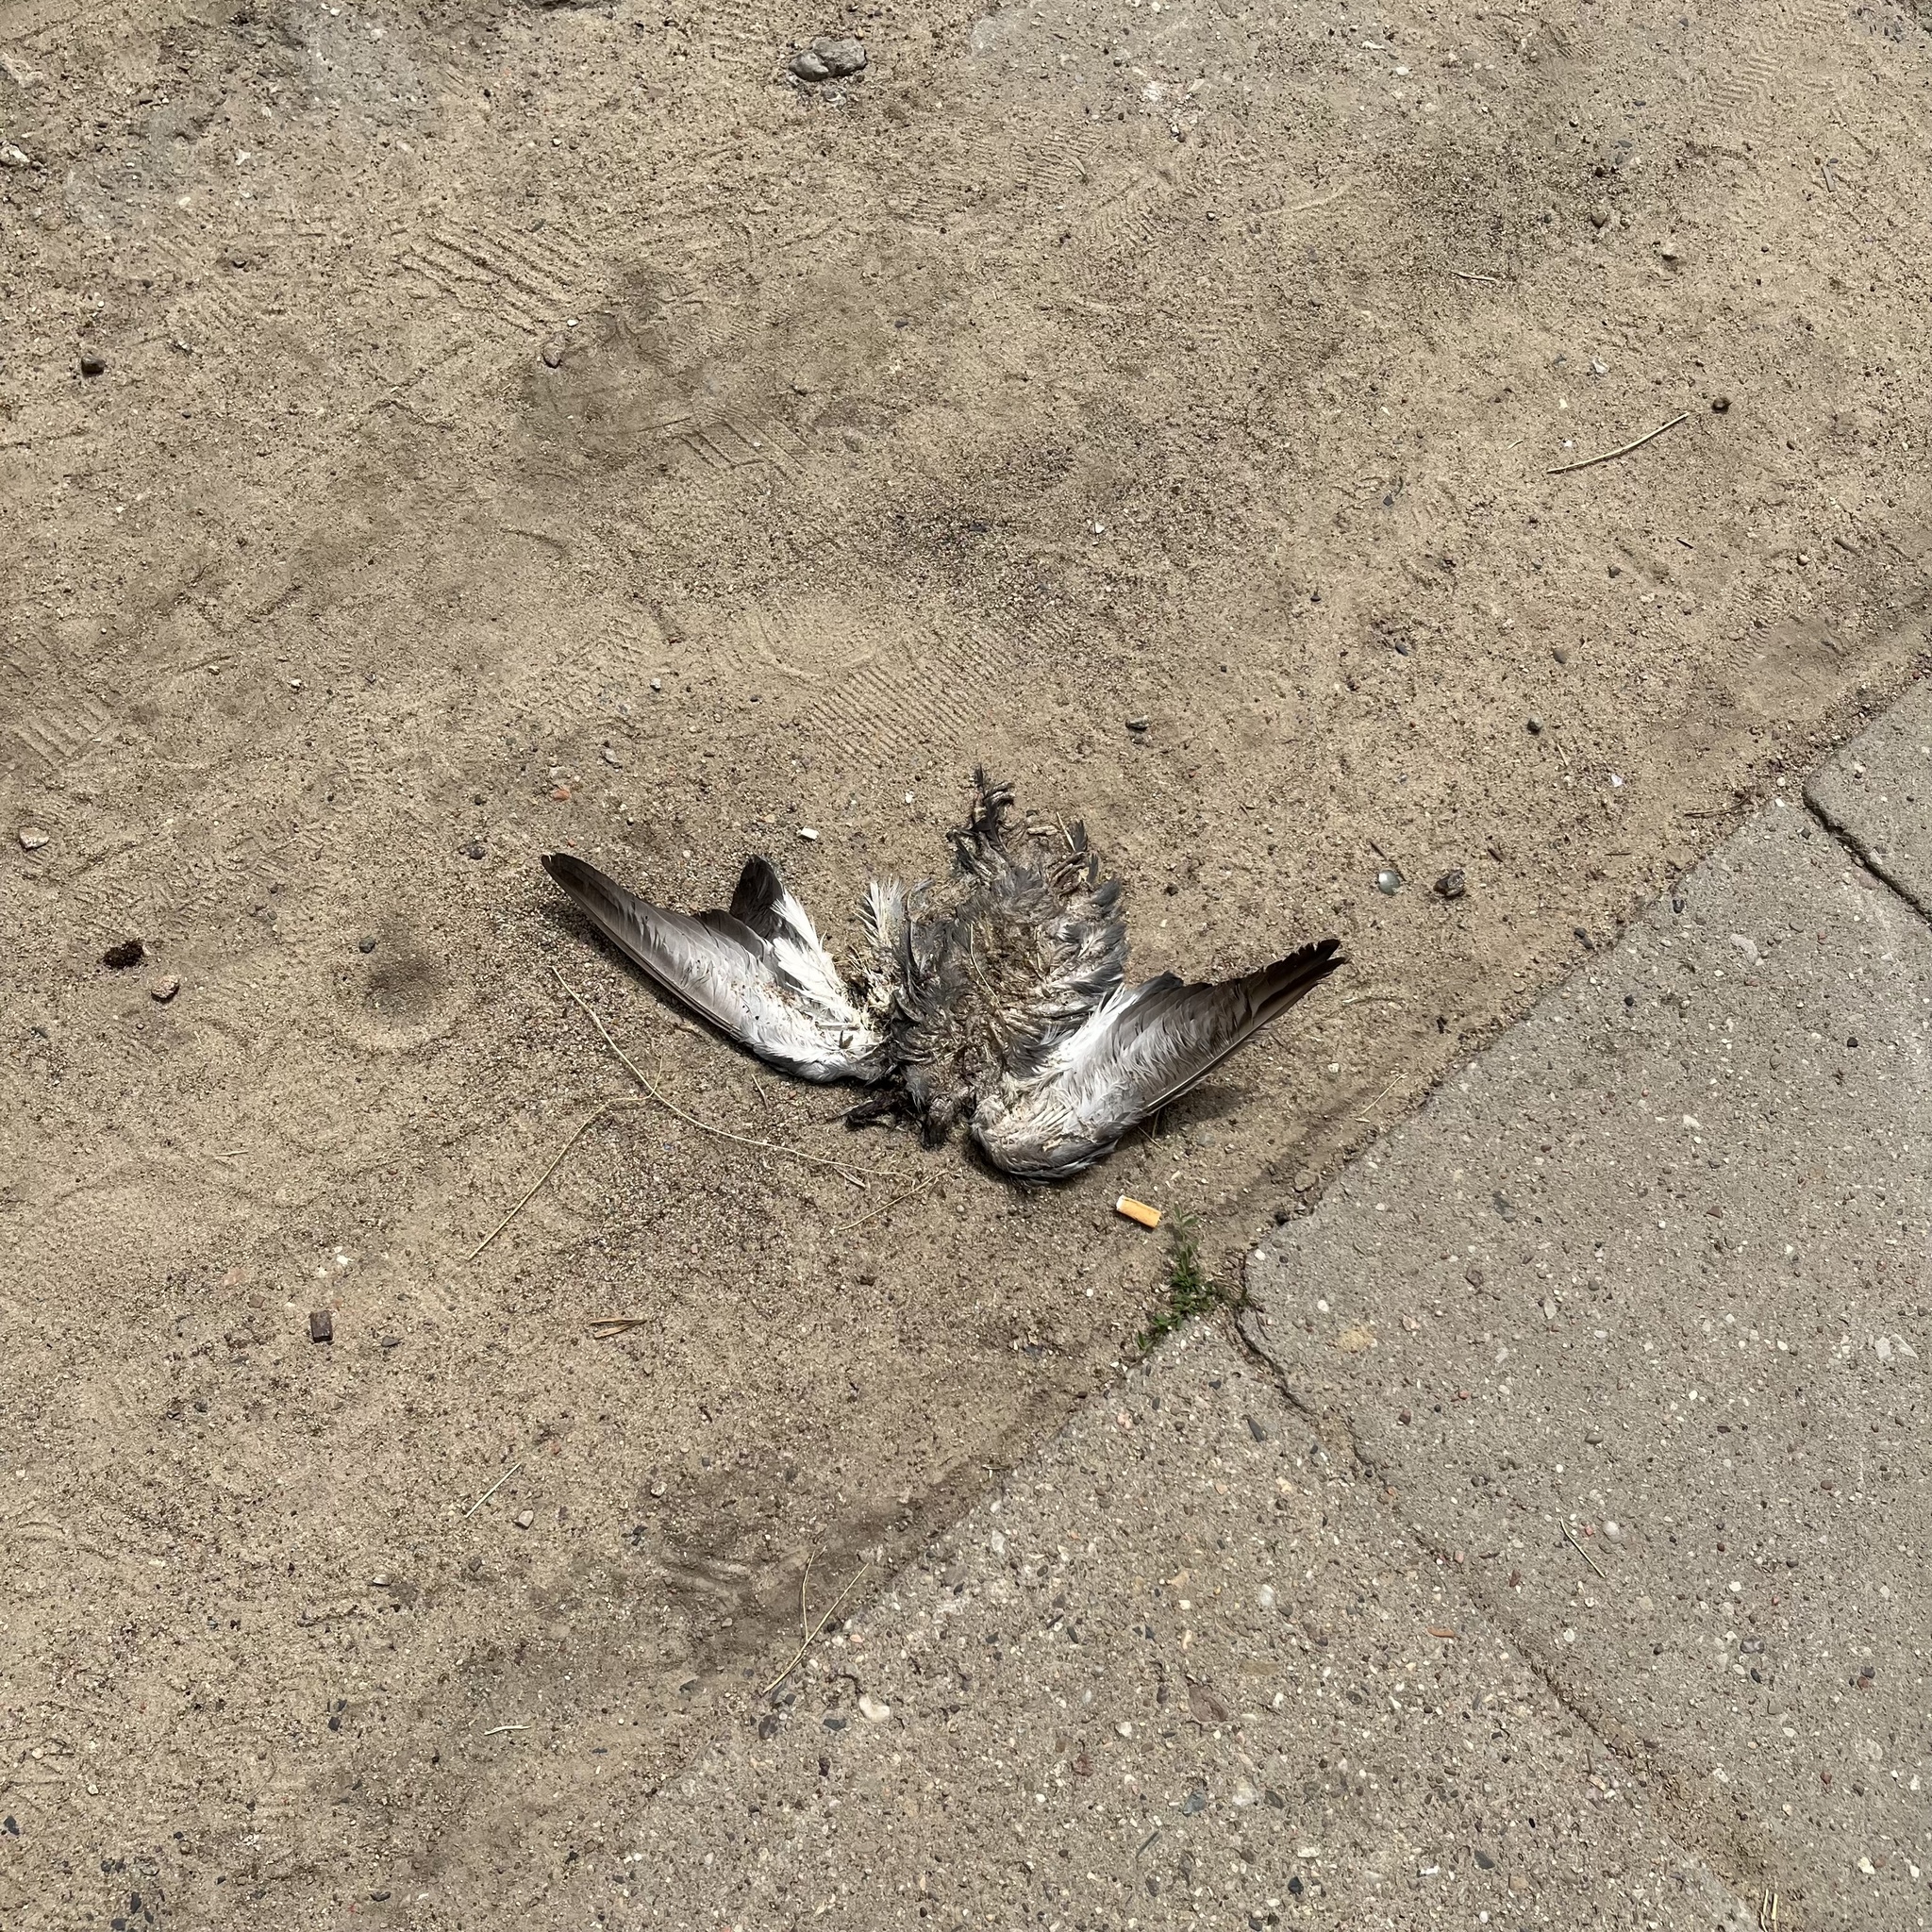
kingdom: Animalia
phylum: Chordata
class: Aves
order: Columbiformes
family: Columbidae
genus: Columba
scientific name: Columba livia
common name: Rock pigeon
